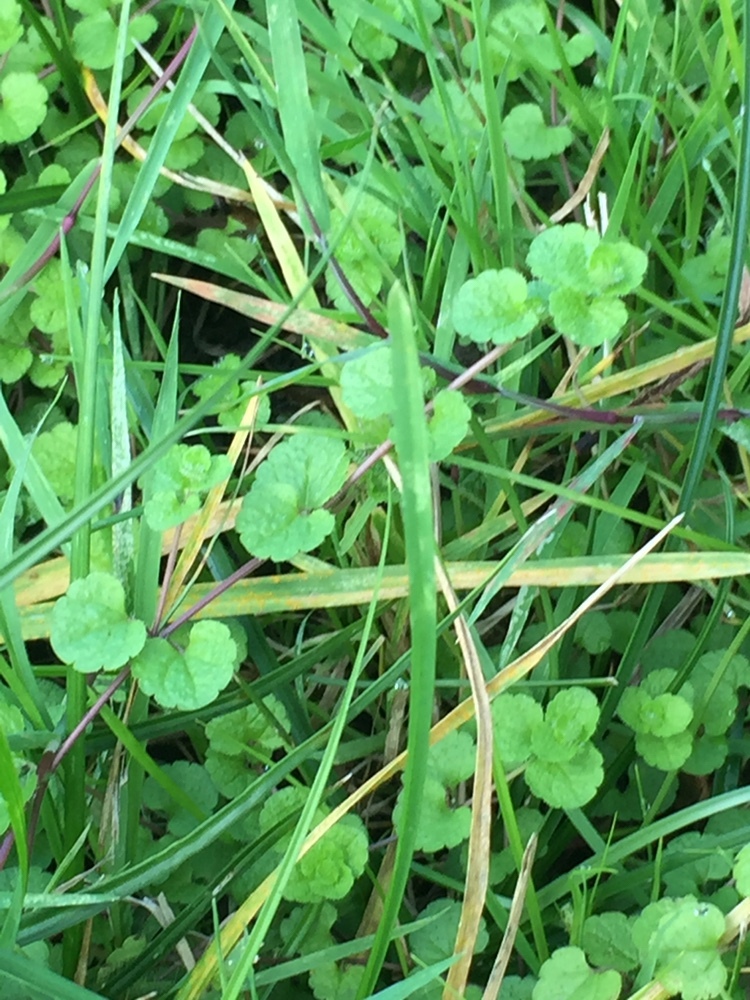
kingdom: Plantae
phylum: Tracheophyta
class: Magnoliopsida
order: Lamiales
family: Plantaginaceae
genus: Veronica
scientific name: Veronica filiformis
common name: Slender speedwell
